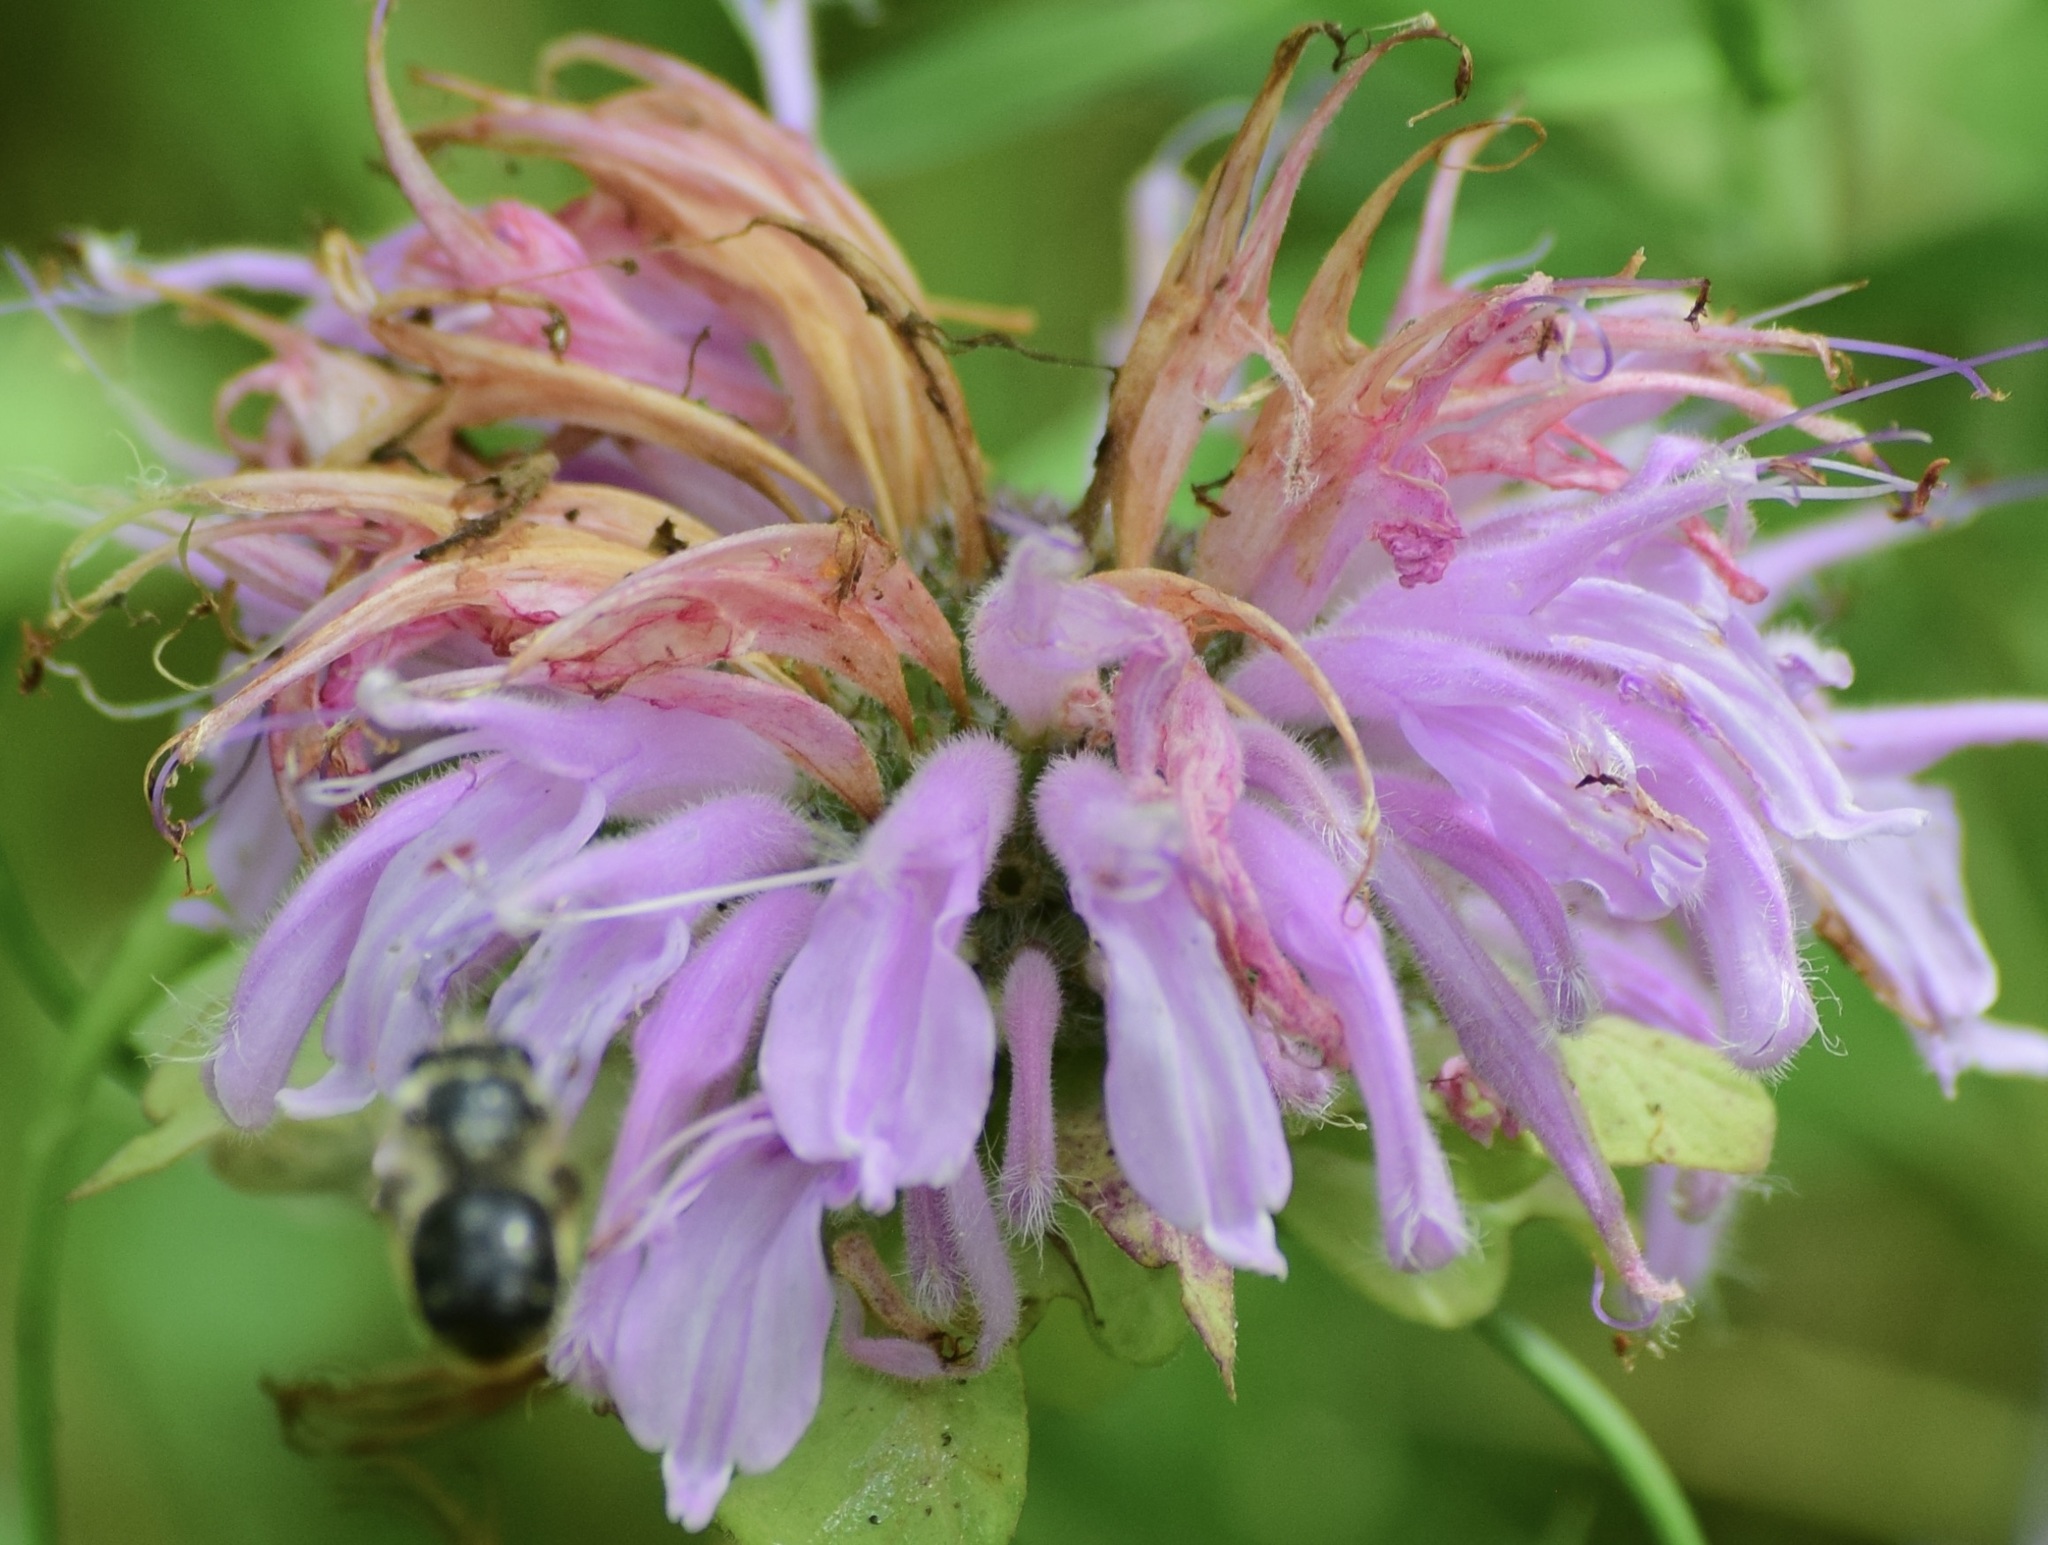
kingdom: Animalia
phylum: Arthropoda
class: Insecta
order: Hymenoptera
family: Apidae
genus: Anthophora
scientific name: Anthophora terminalis
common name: Orange-tipped wood-digger bee
